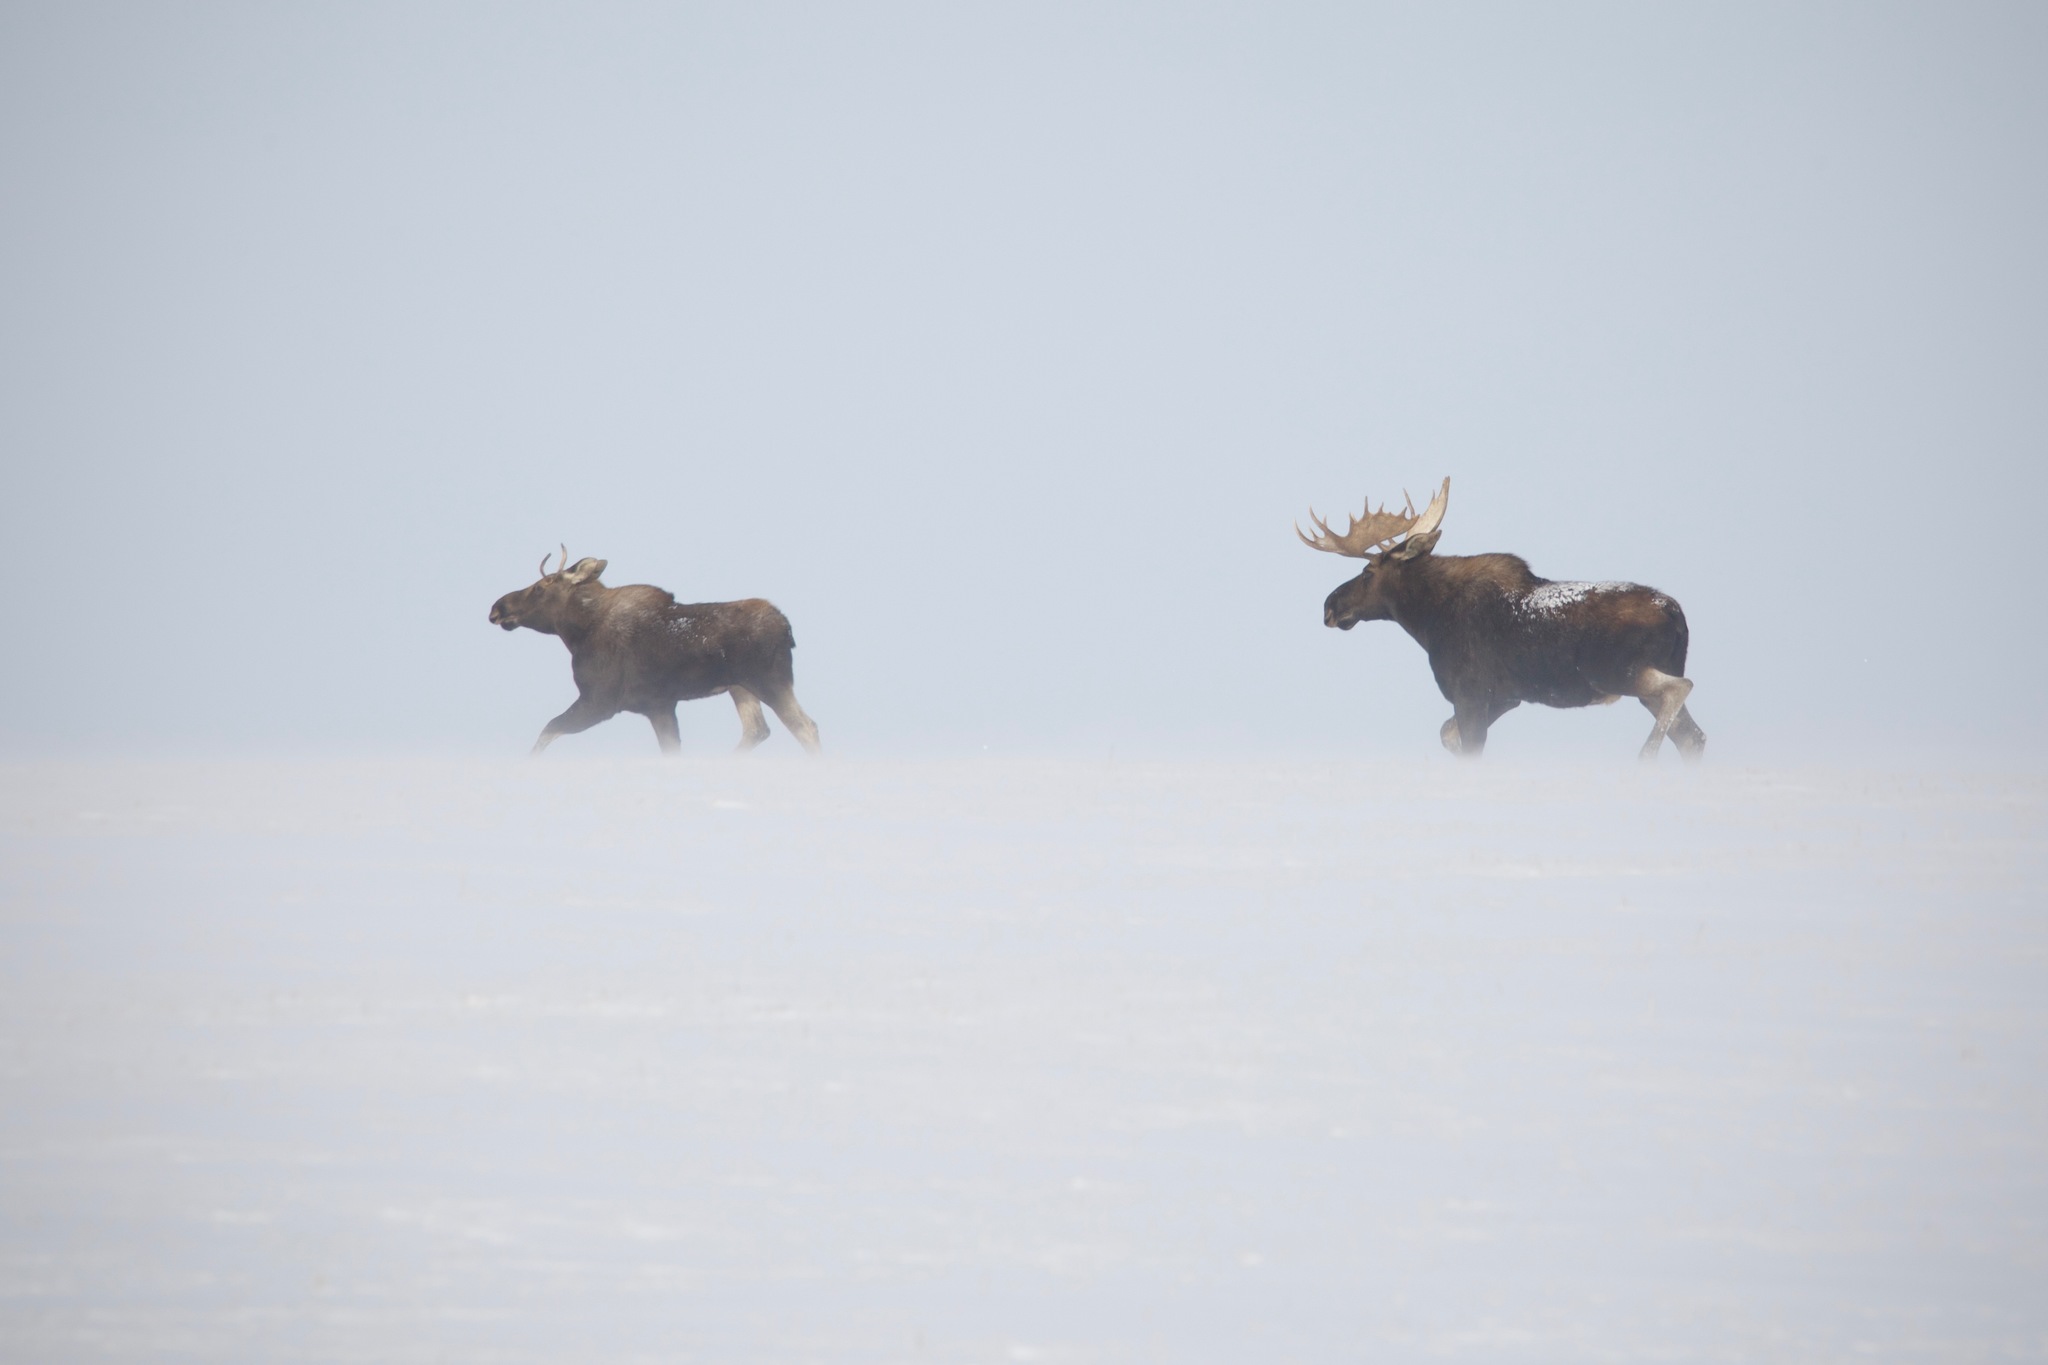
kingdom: Animalia
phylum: Chordata
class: Mammalia
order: Artiodactyla
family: Cervidae
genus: Alces
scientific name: Alces alces
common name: Moose
